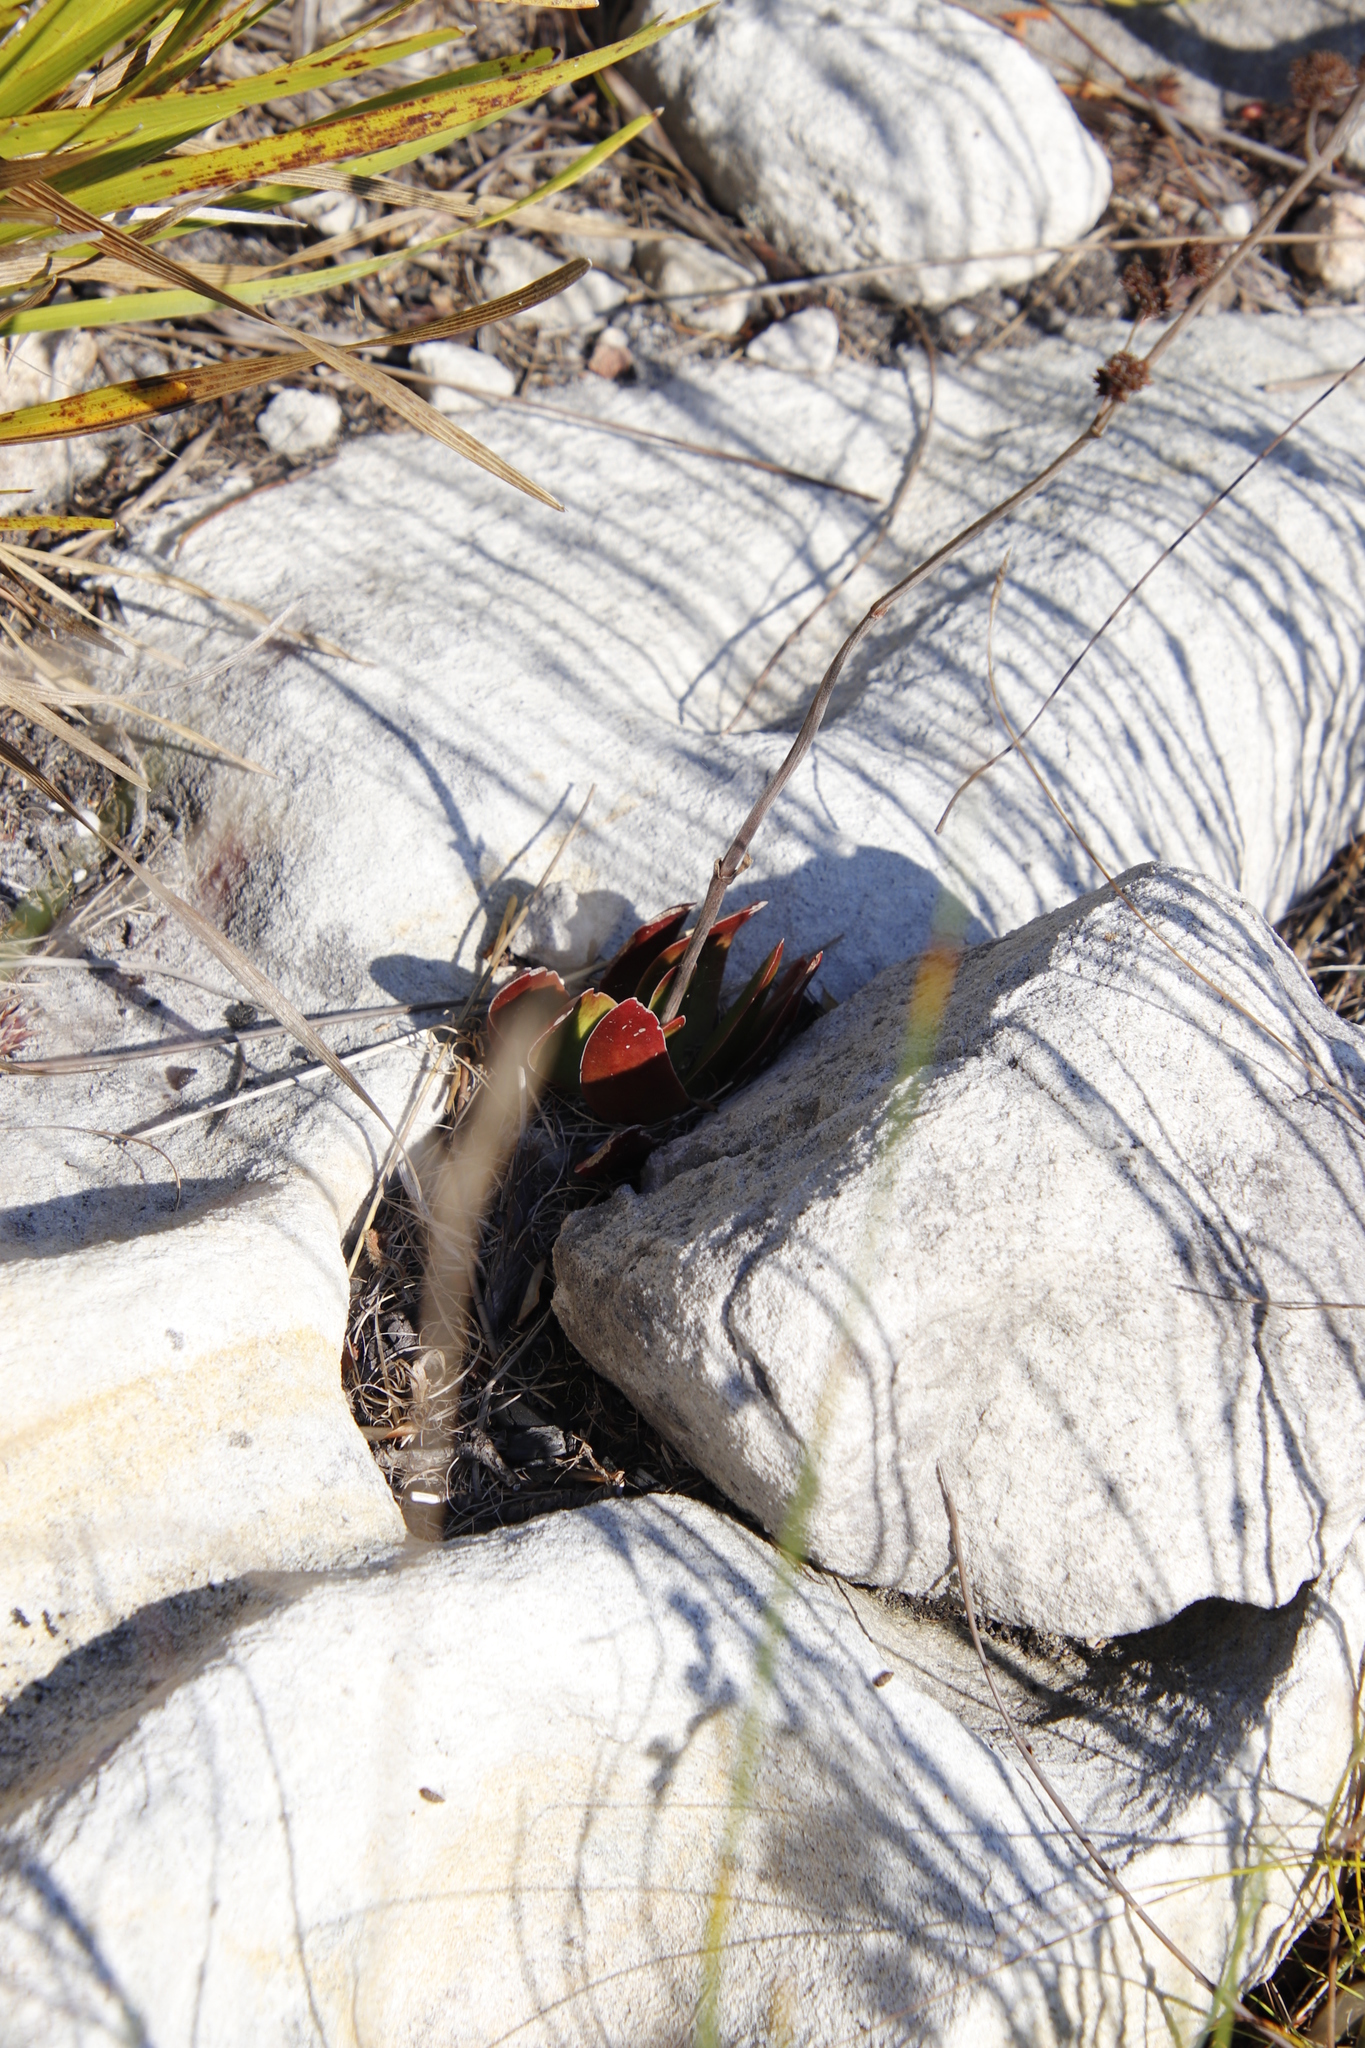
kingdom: Plantae
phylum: Tracheophyta
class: Magnoliopsida
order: Saxifragales
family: Crassulaceae
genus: Crassula
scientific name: Crassula nudicaulis
